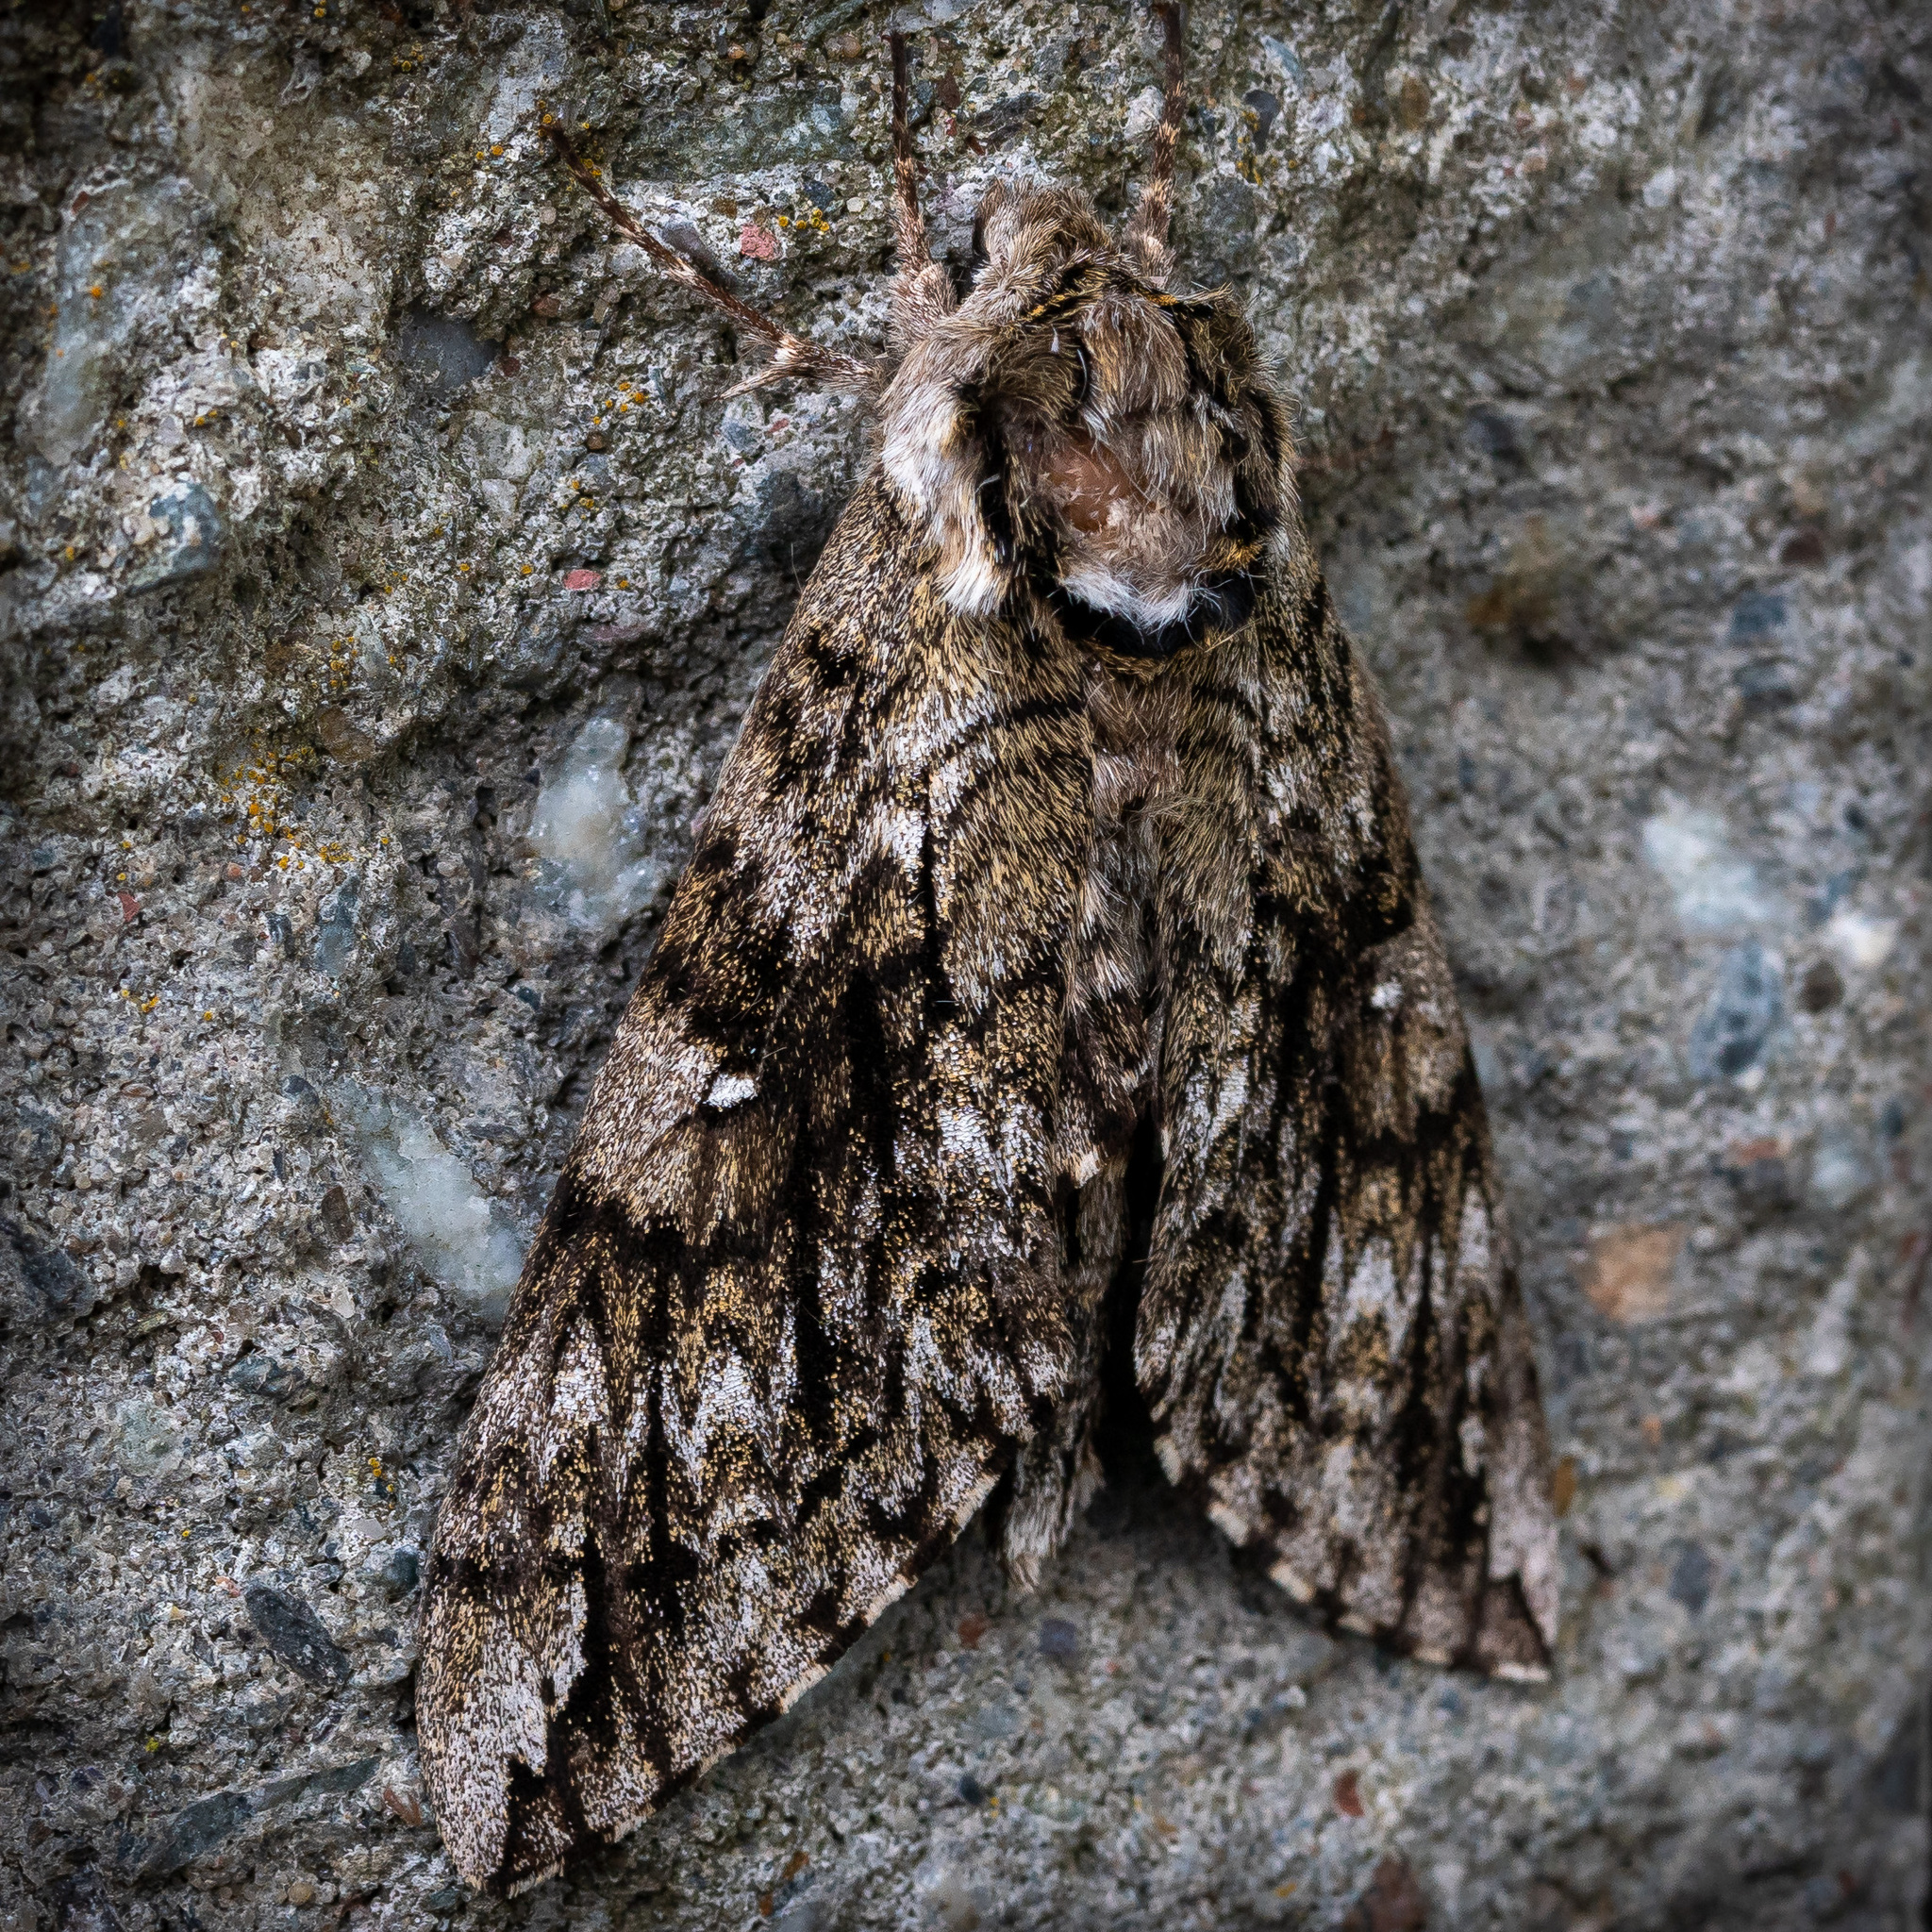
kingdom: Animalia
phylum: Arthropoda
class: Insecta
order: Lepidoptera
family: Sphingidae
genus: Ceratomia
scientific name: Ceratomia undulosa
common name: Waved sphinx
